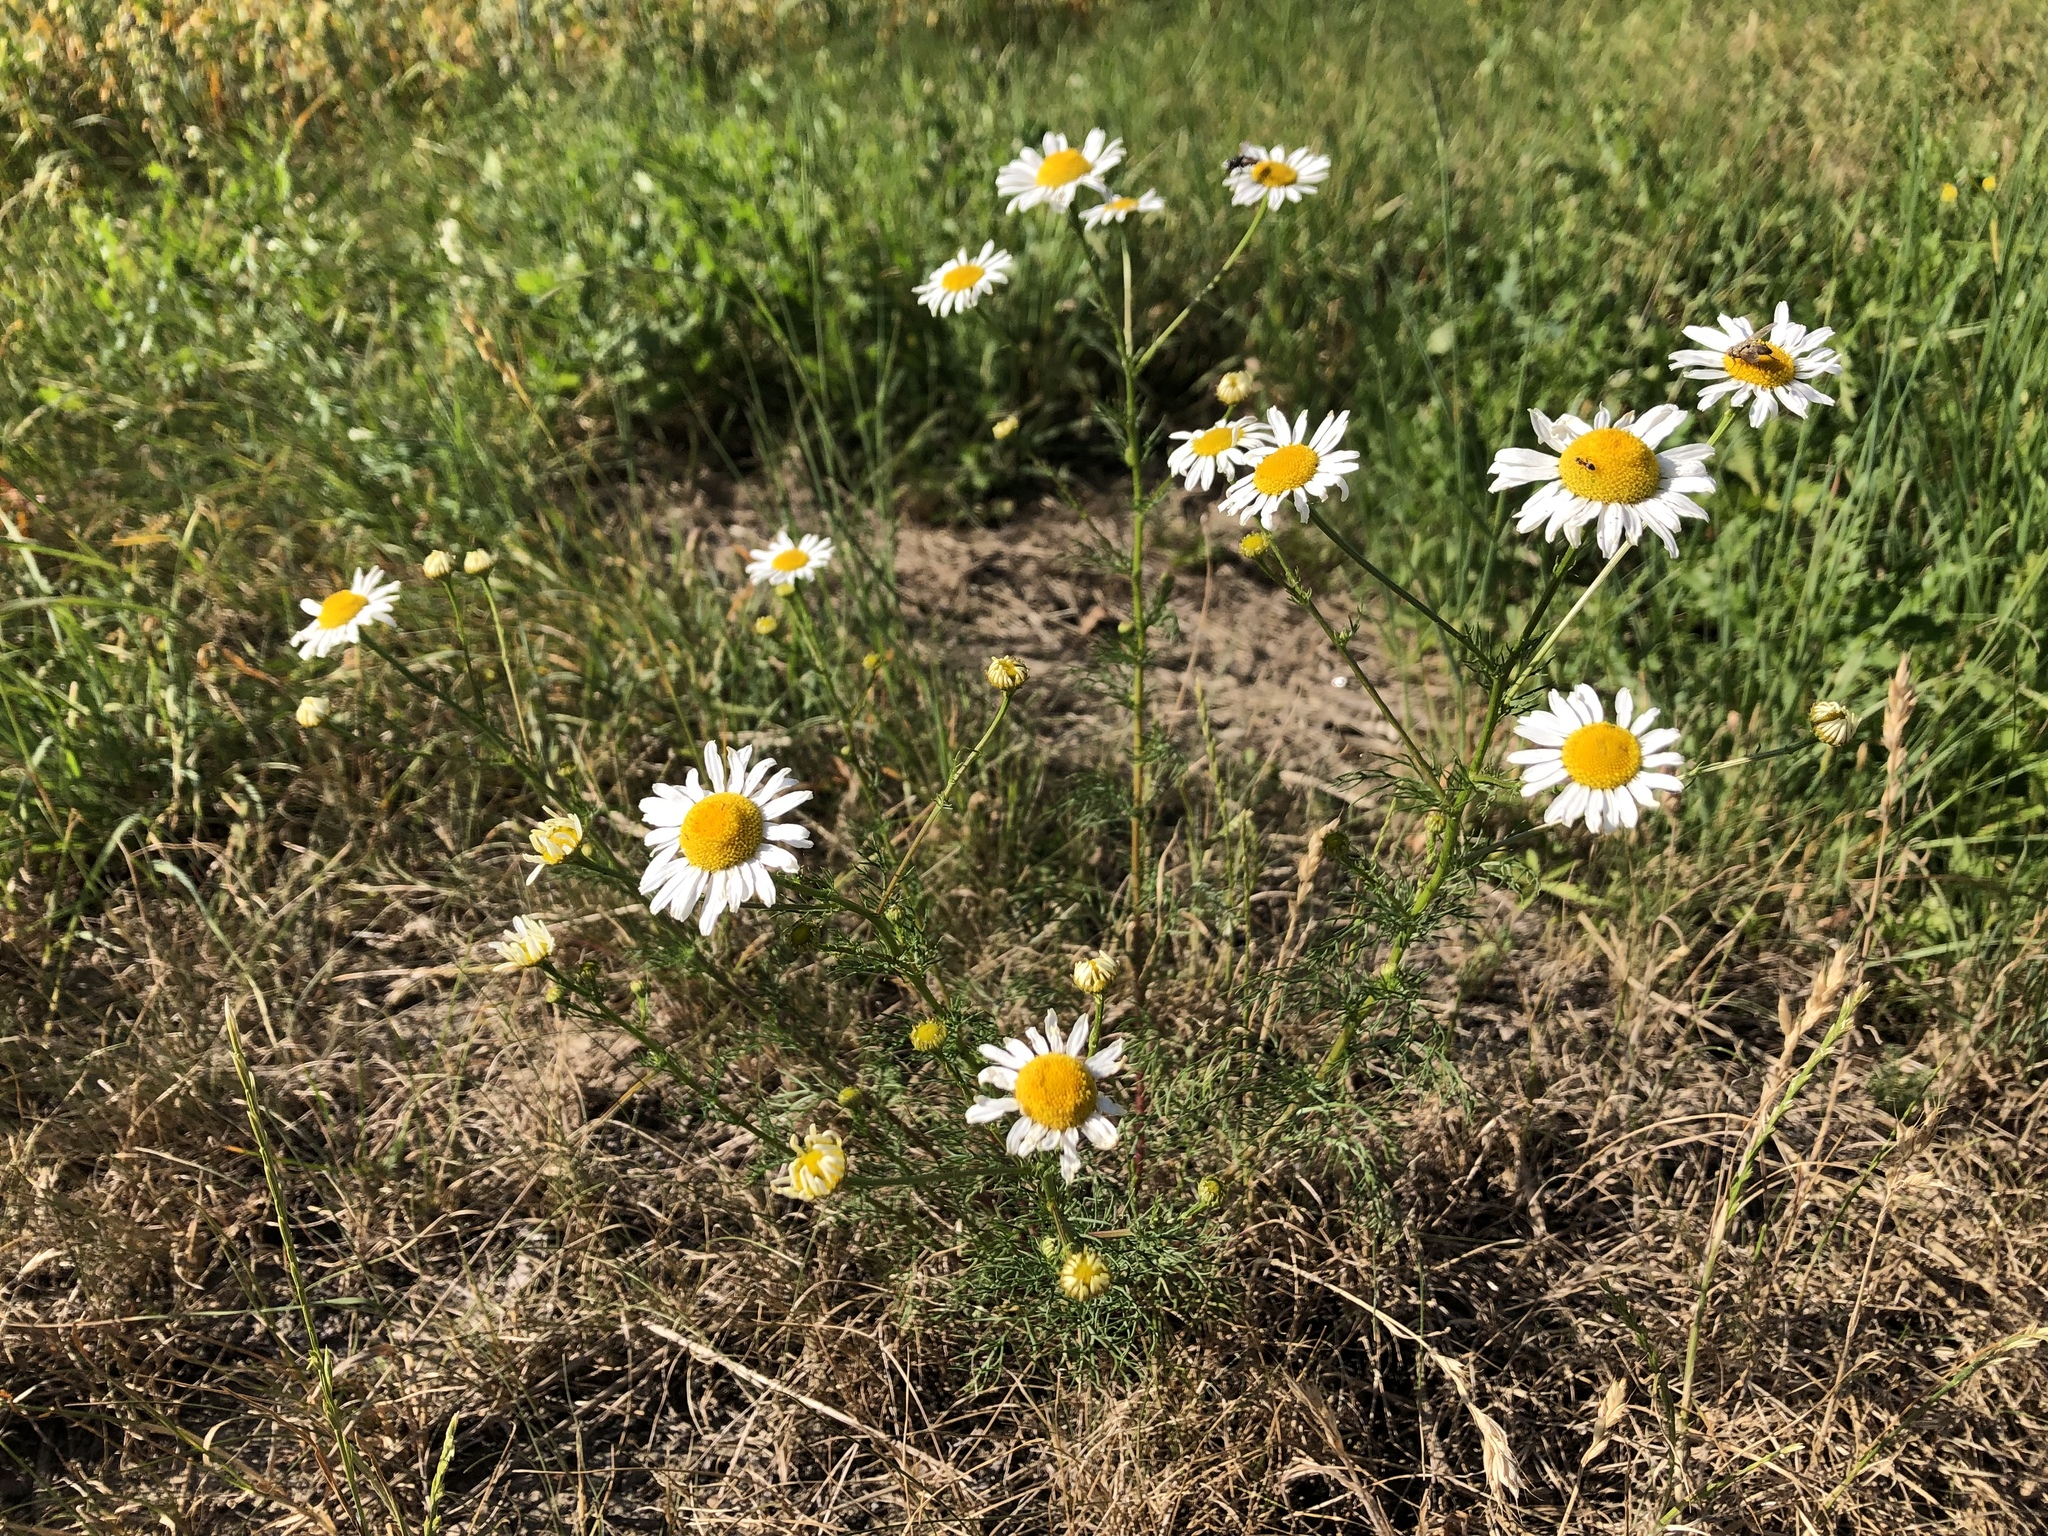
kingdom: Plantae
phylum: Tracheophyta
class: Magnoliopsida
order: Asterales
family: Asteraceae
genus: Tripleurospermum
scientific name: Tripleurospermum inodorum
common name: Scentless mayweed
